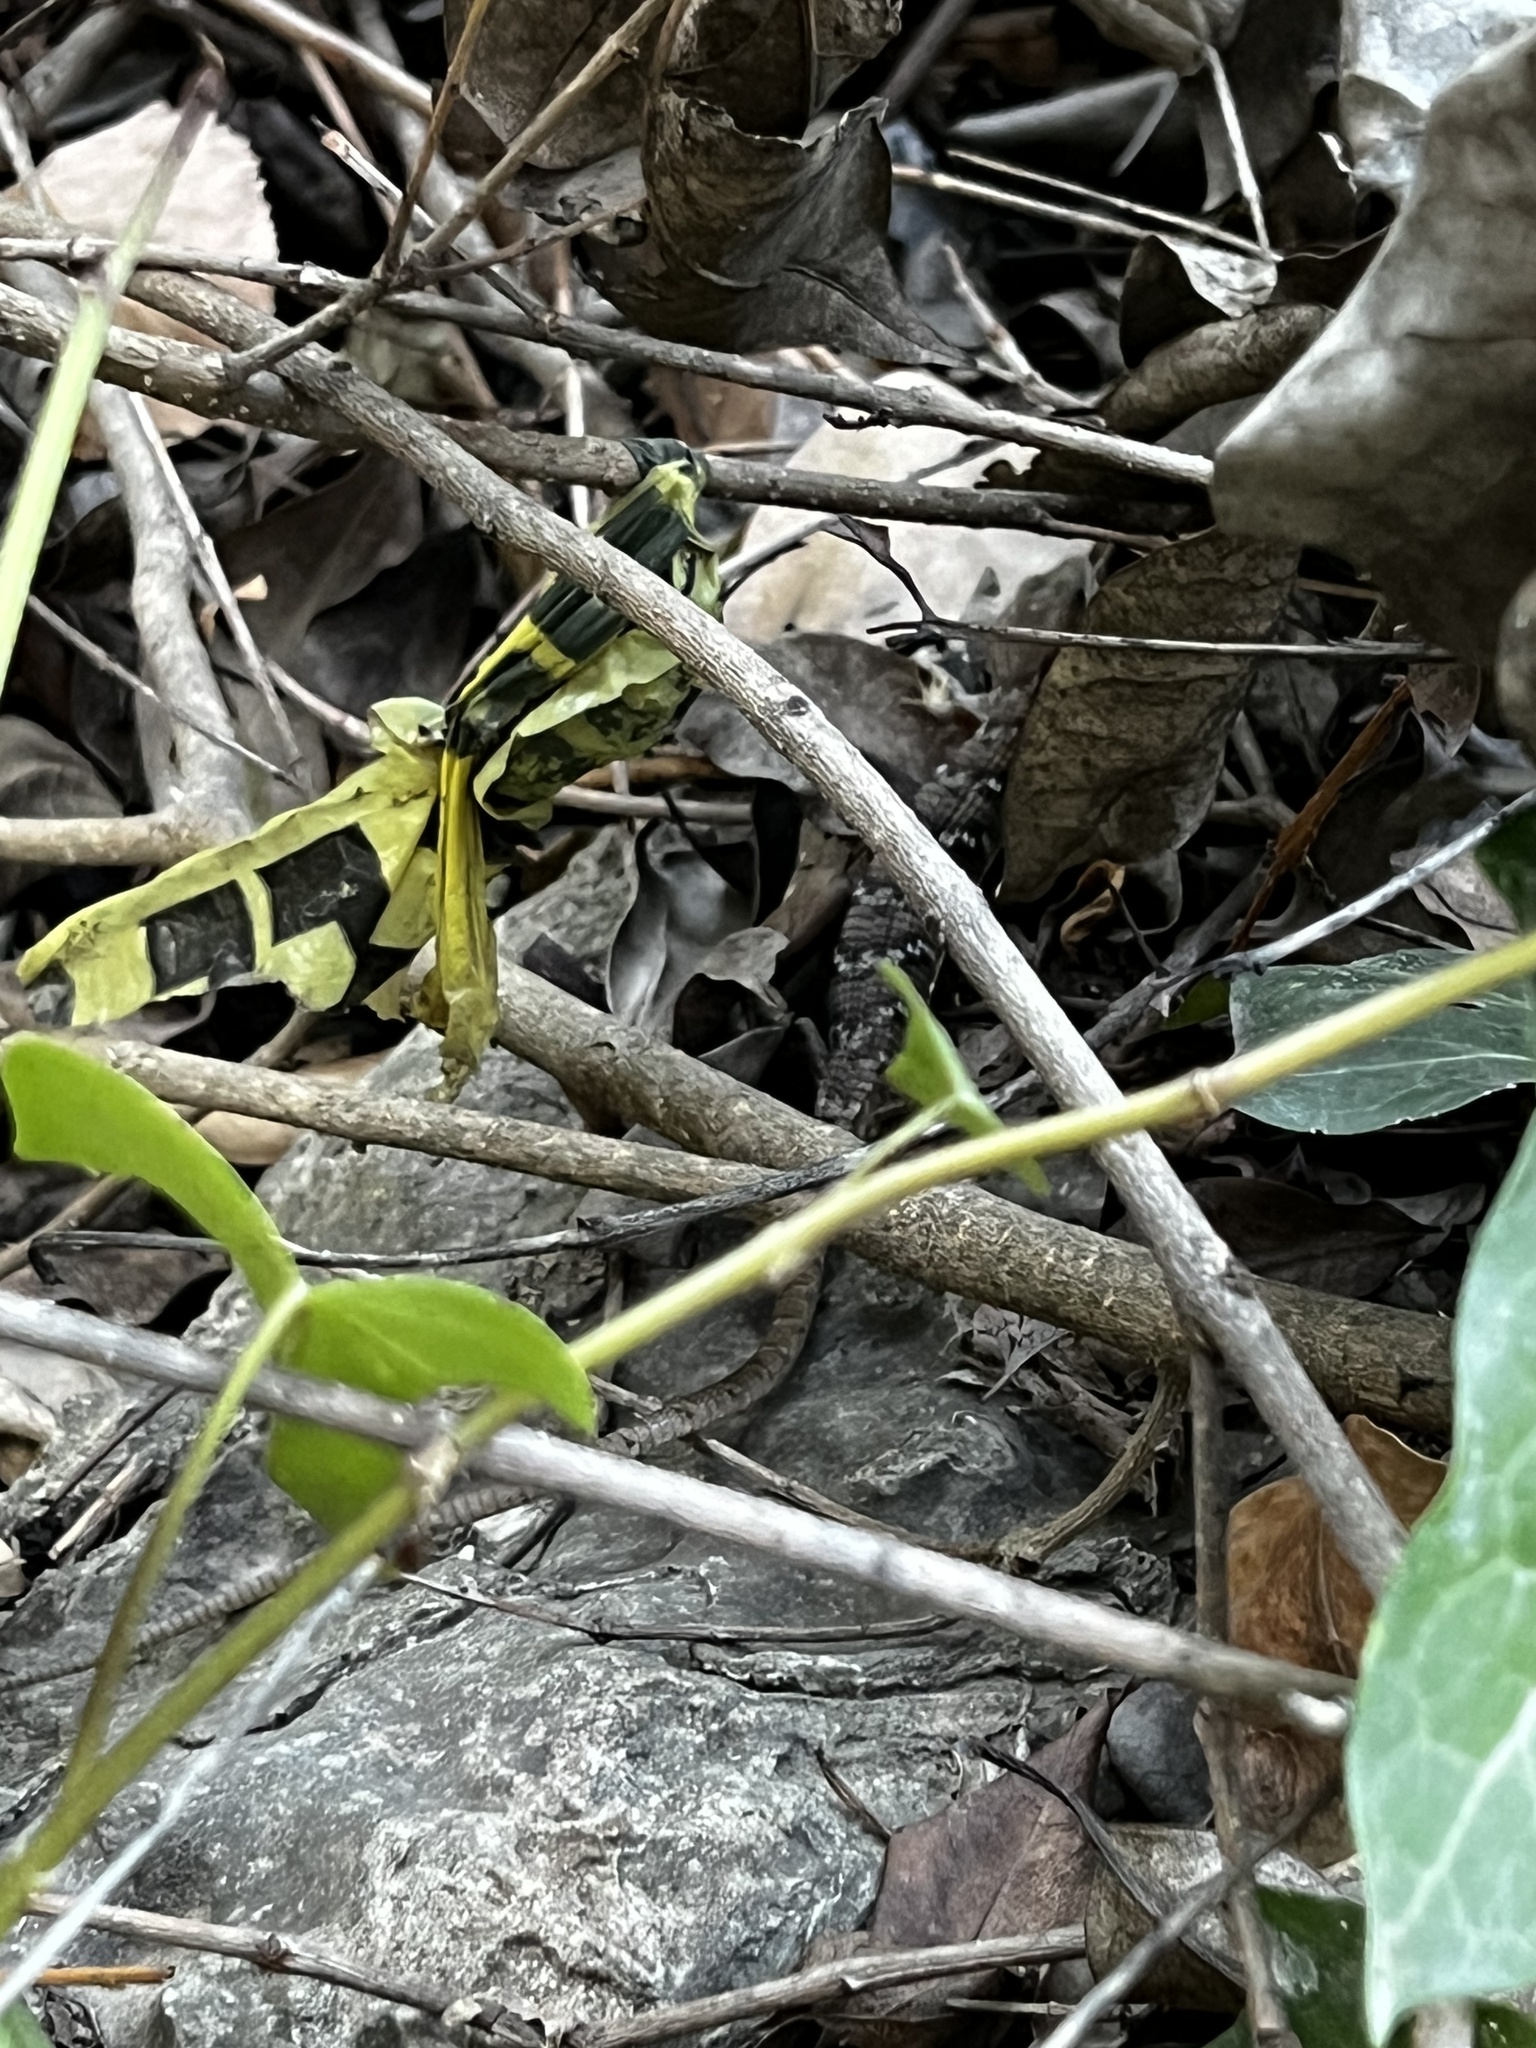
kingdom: Animalia
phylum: Chordata
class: Squamata
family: Anguidae
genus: Gerrhonotus
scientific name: Gerrhonotus infernalis
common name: Texas alligator lizard
